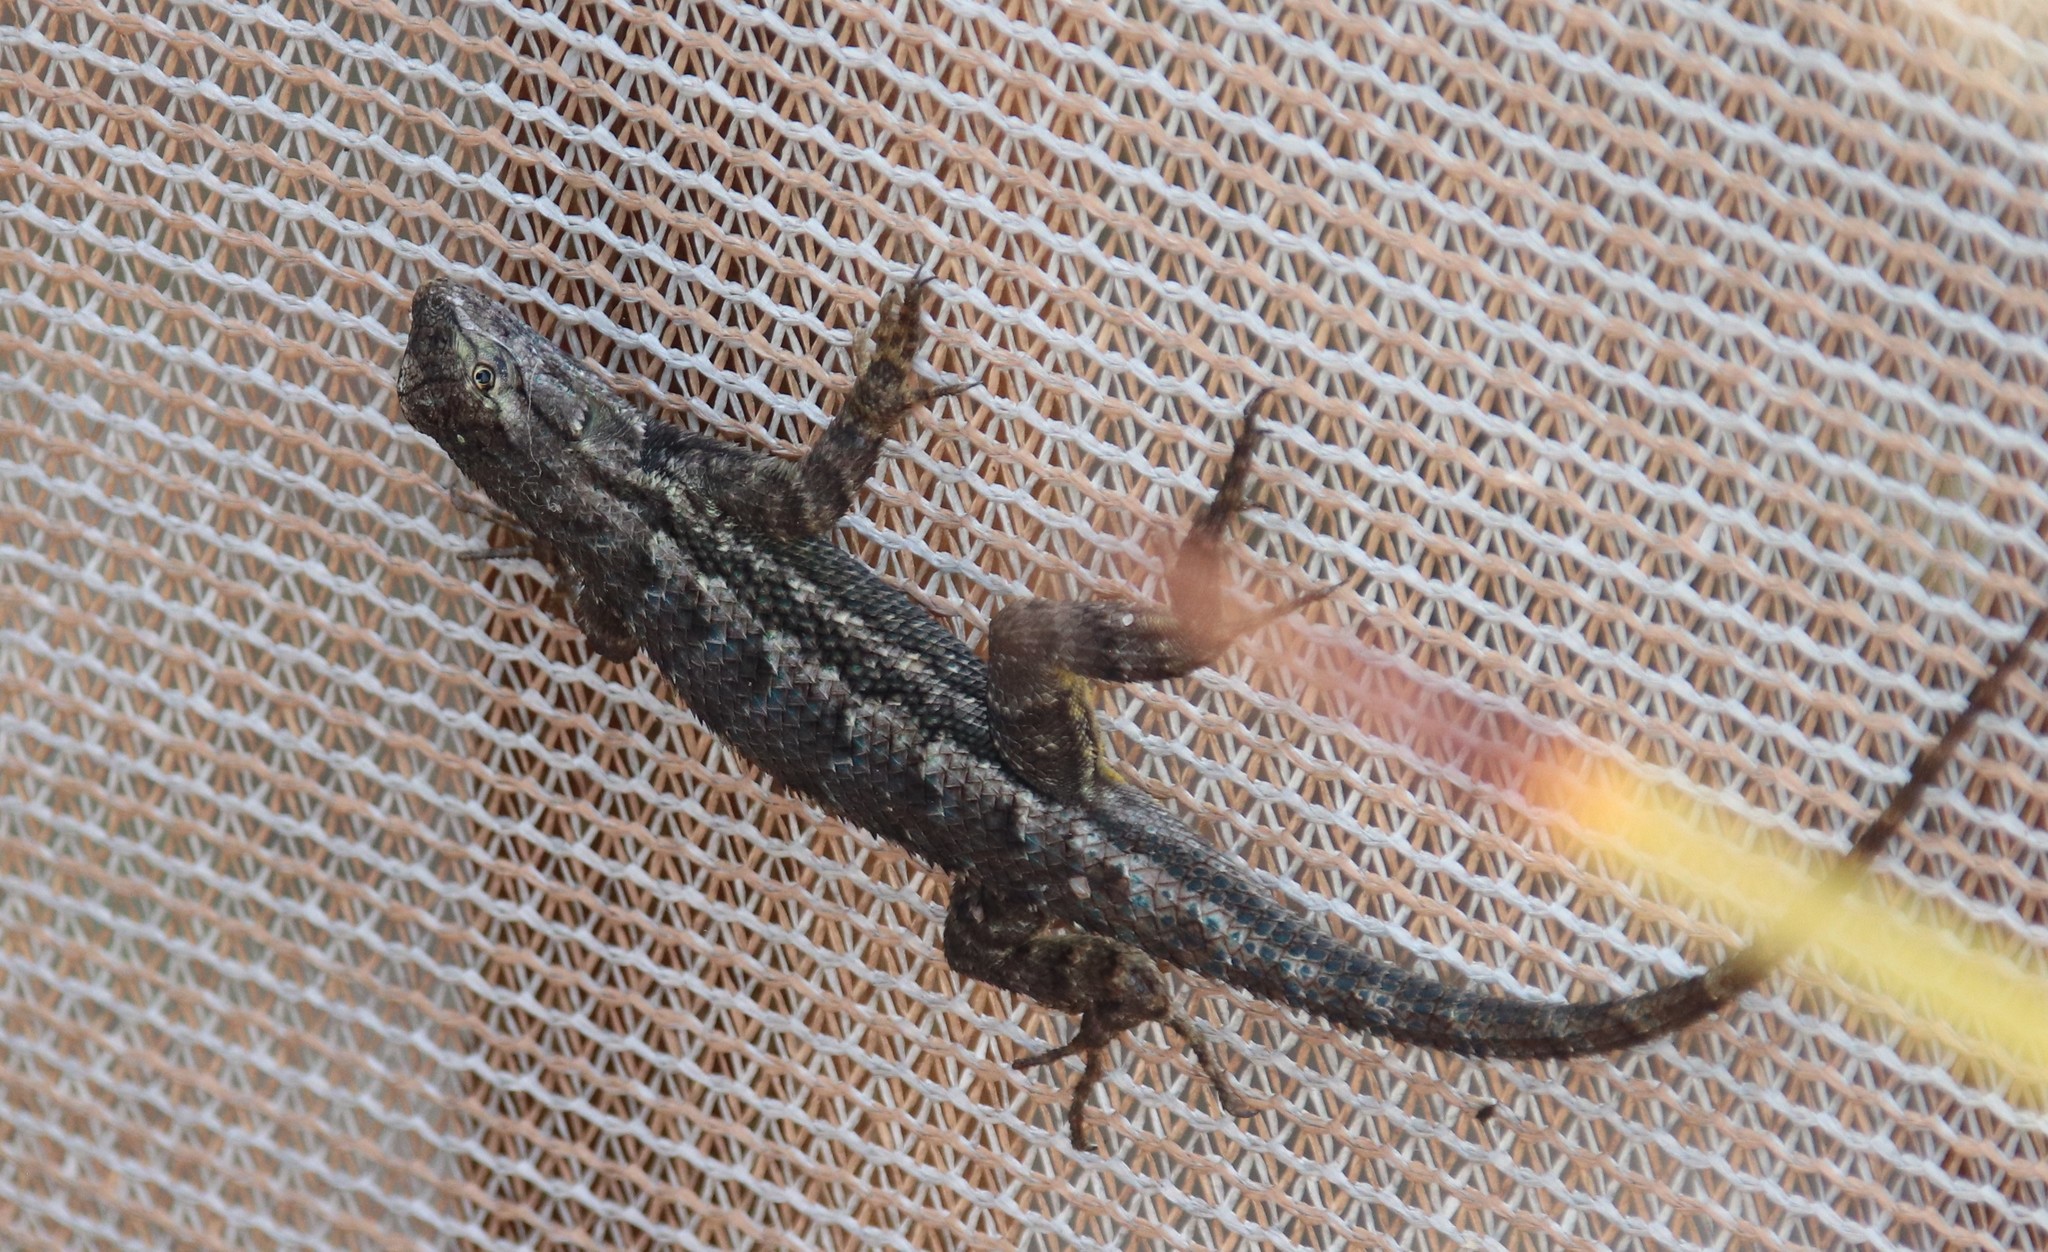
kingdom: Animalia
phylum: Chordata
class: Squamata
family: Phrynosomatidae
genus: Sceloporus
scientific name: Sceloporus occidentalis
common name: Western fence lizard
